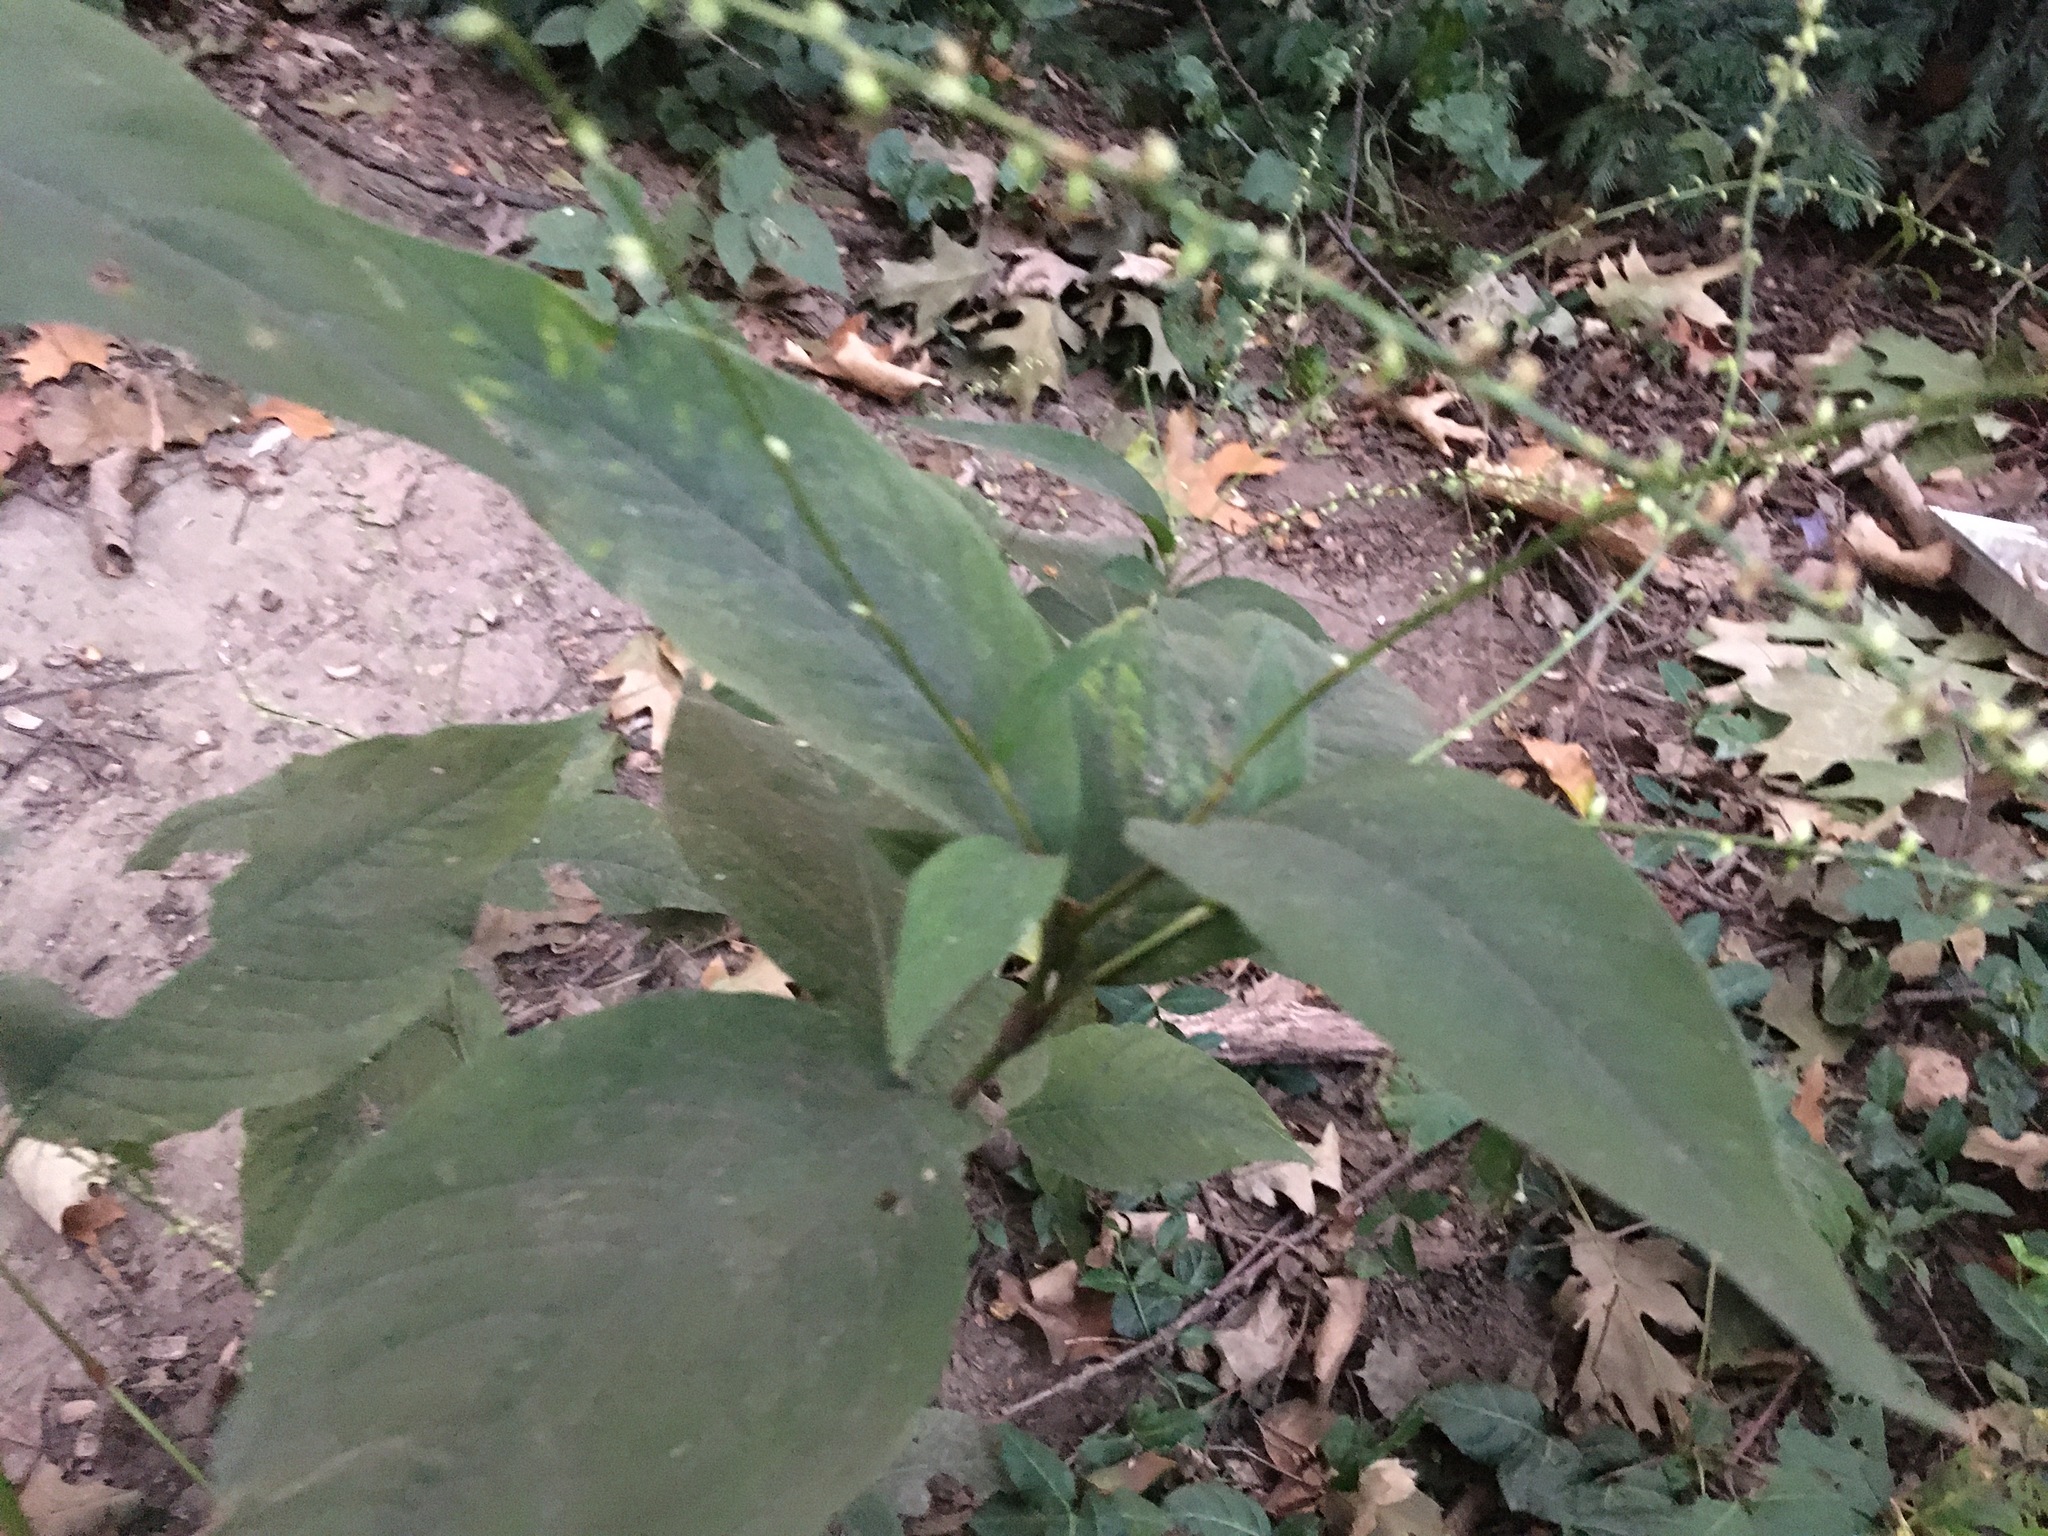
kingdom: Plantae
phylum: Tracheophyta
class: Magnoliopsida
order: Caryophyllales
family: Polygonaceae
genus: Persicaria
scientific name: Persicaria virginiana
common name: Jumpseed
